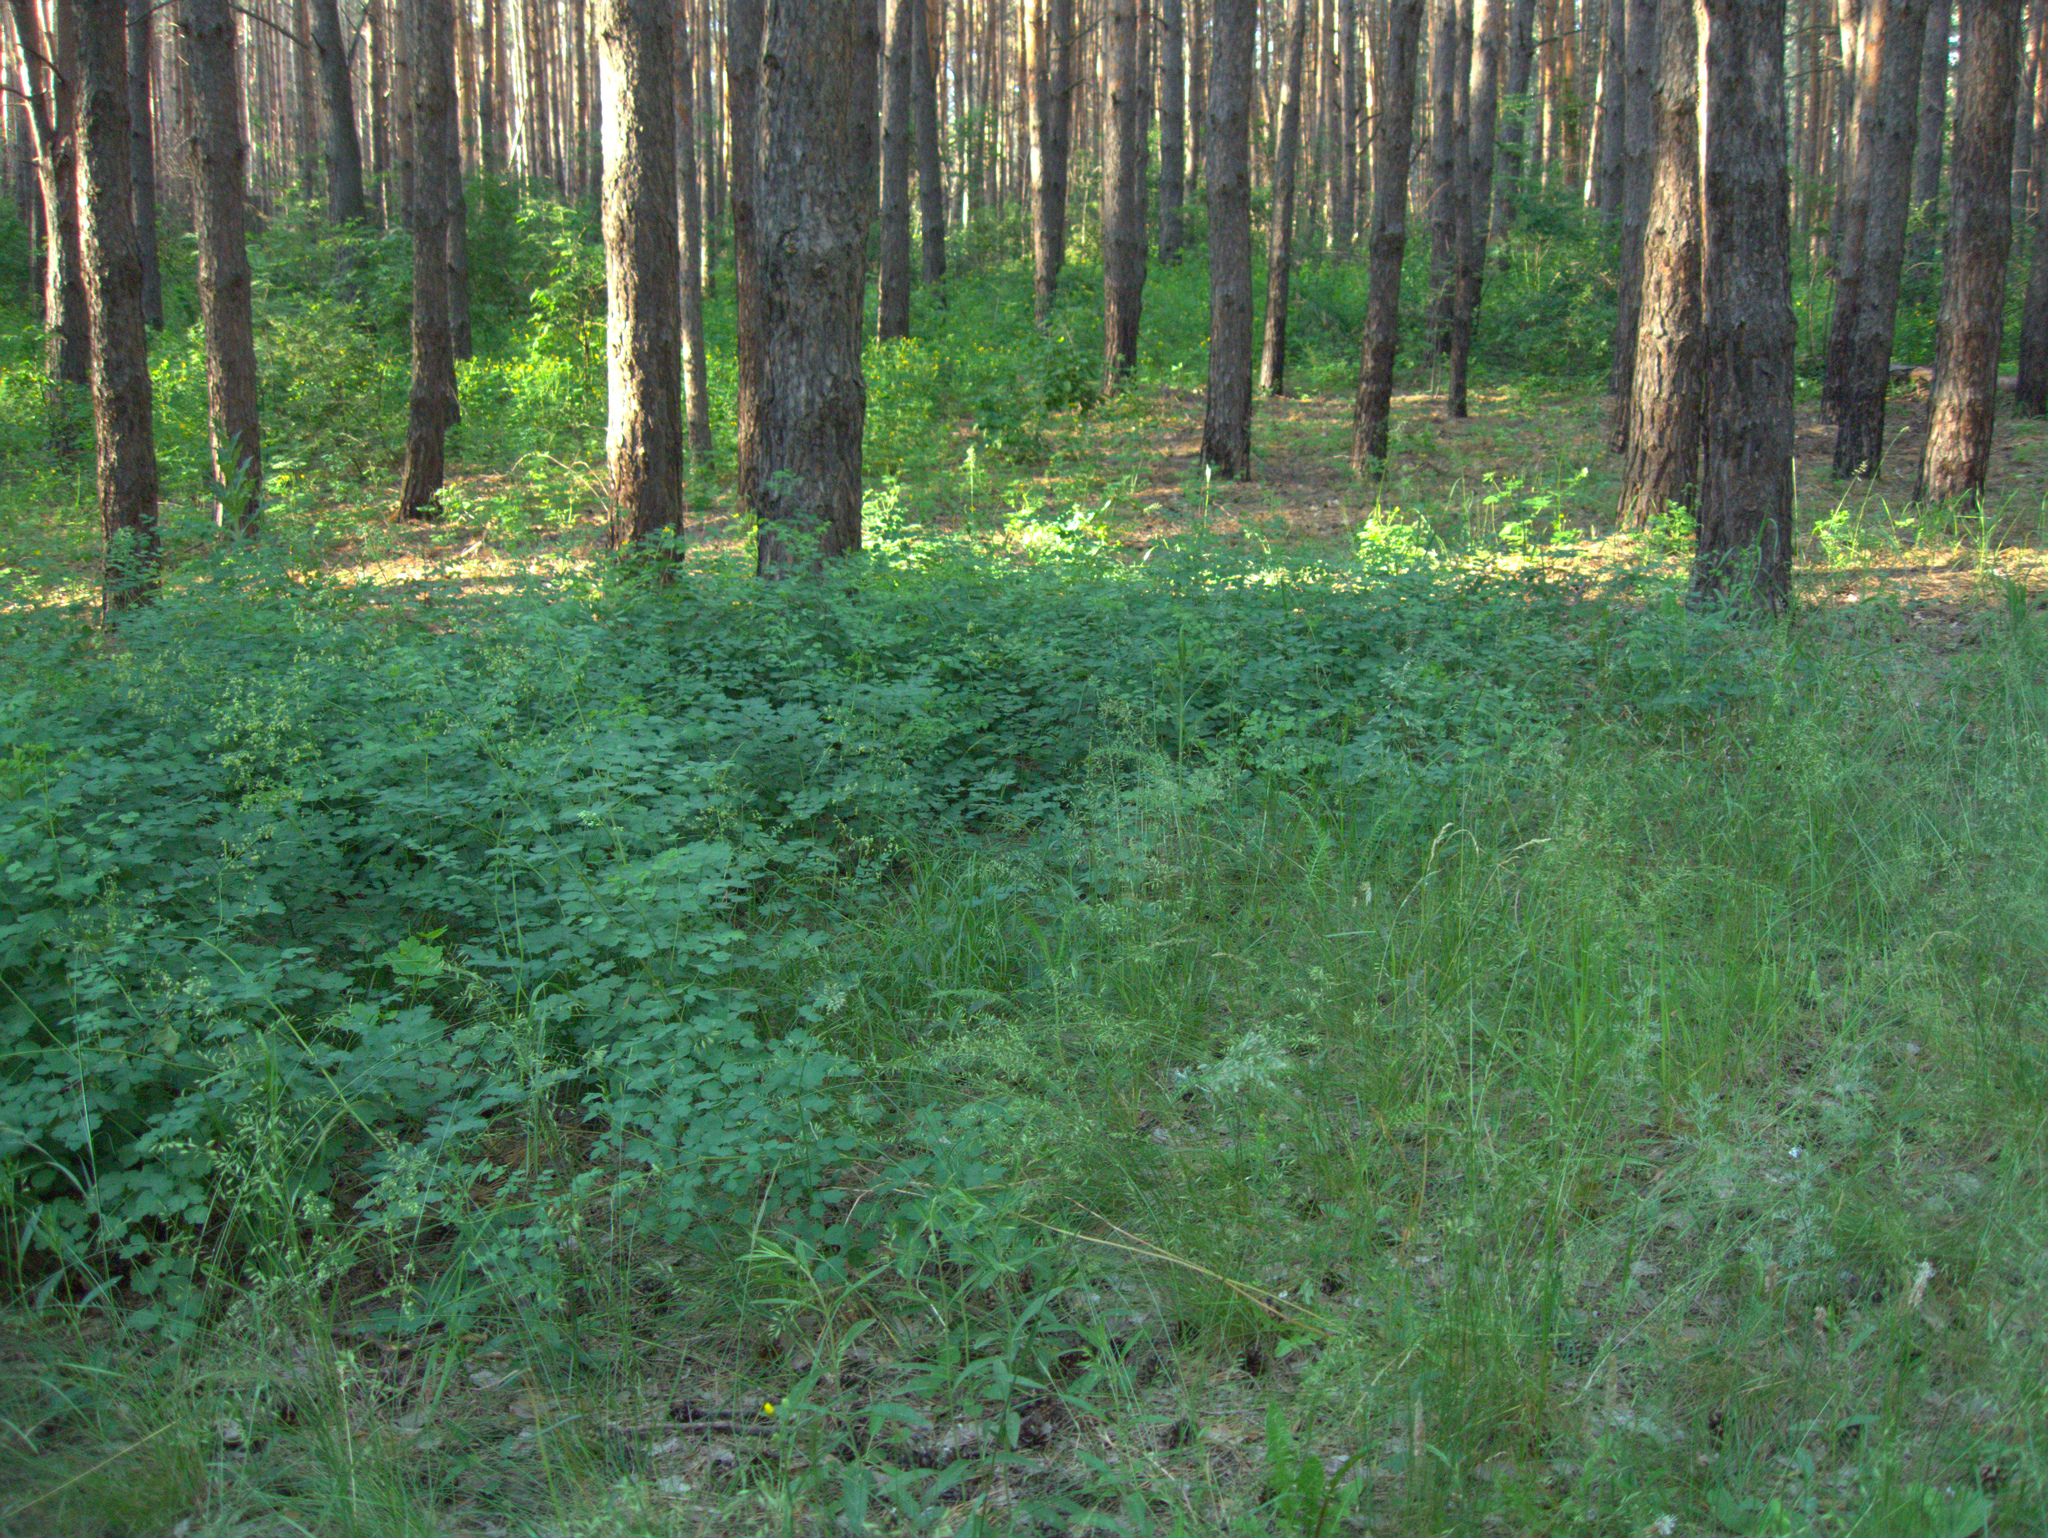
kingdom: Plantae
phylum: Tracheophyta
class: Magnoliopsida
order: Ranunculales
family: Papaveraceae
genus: Chelidonium
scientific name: Chelidonium majus
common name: Greater celandine
